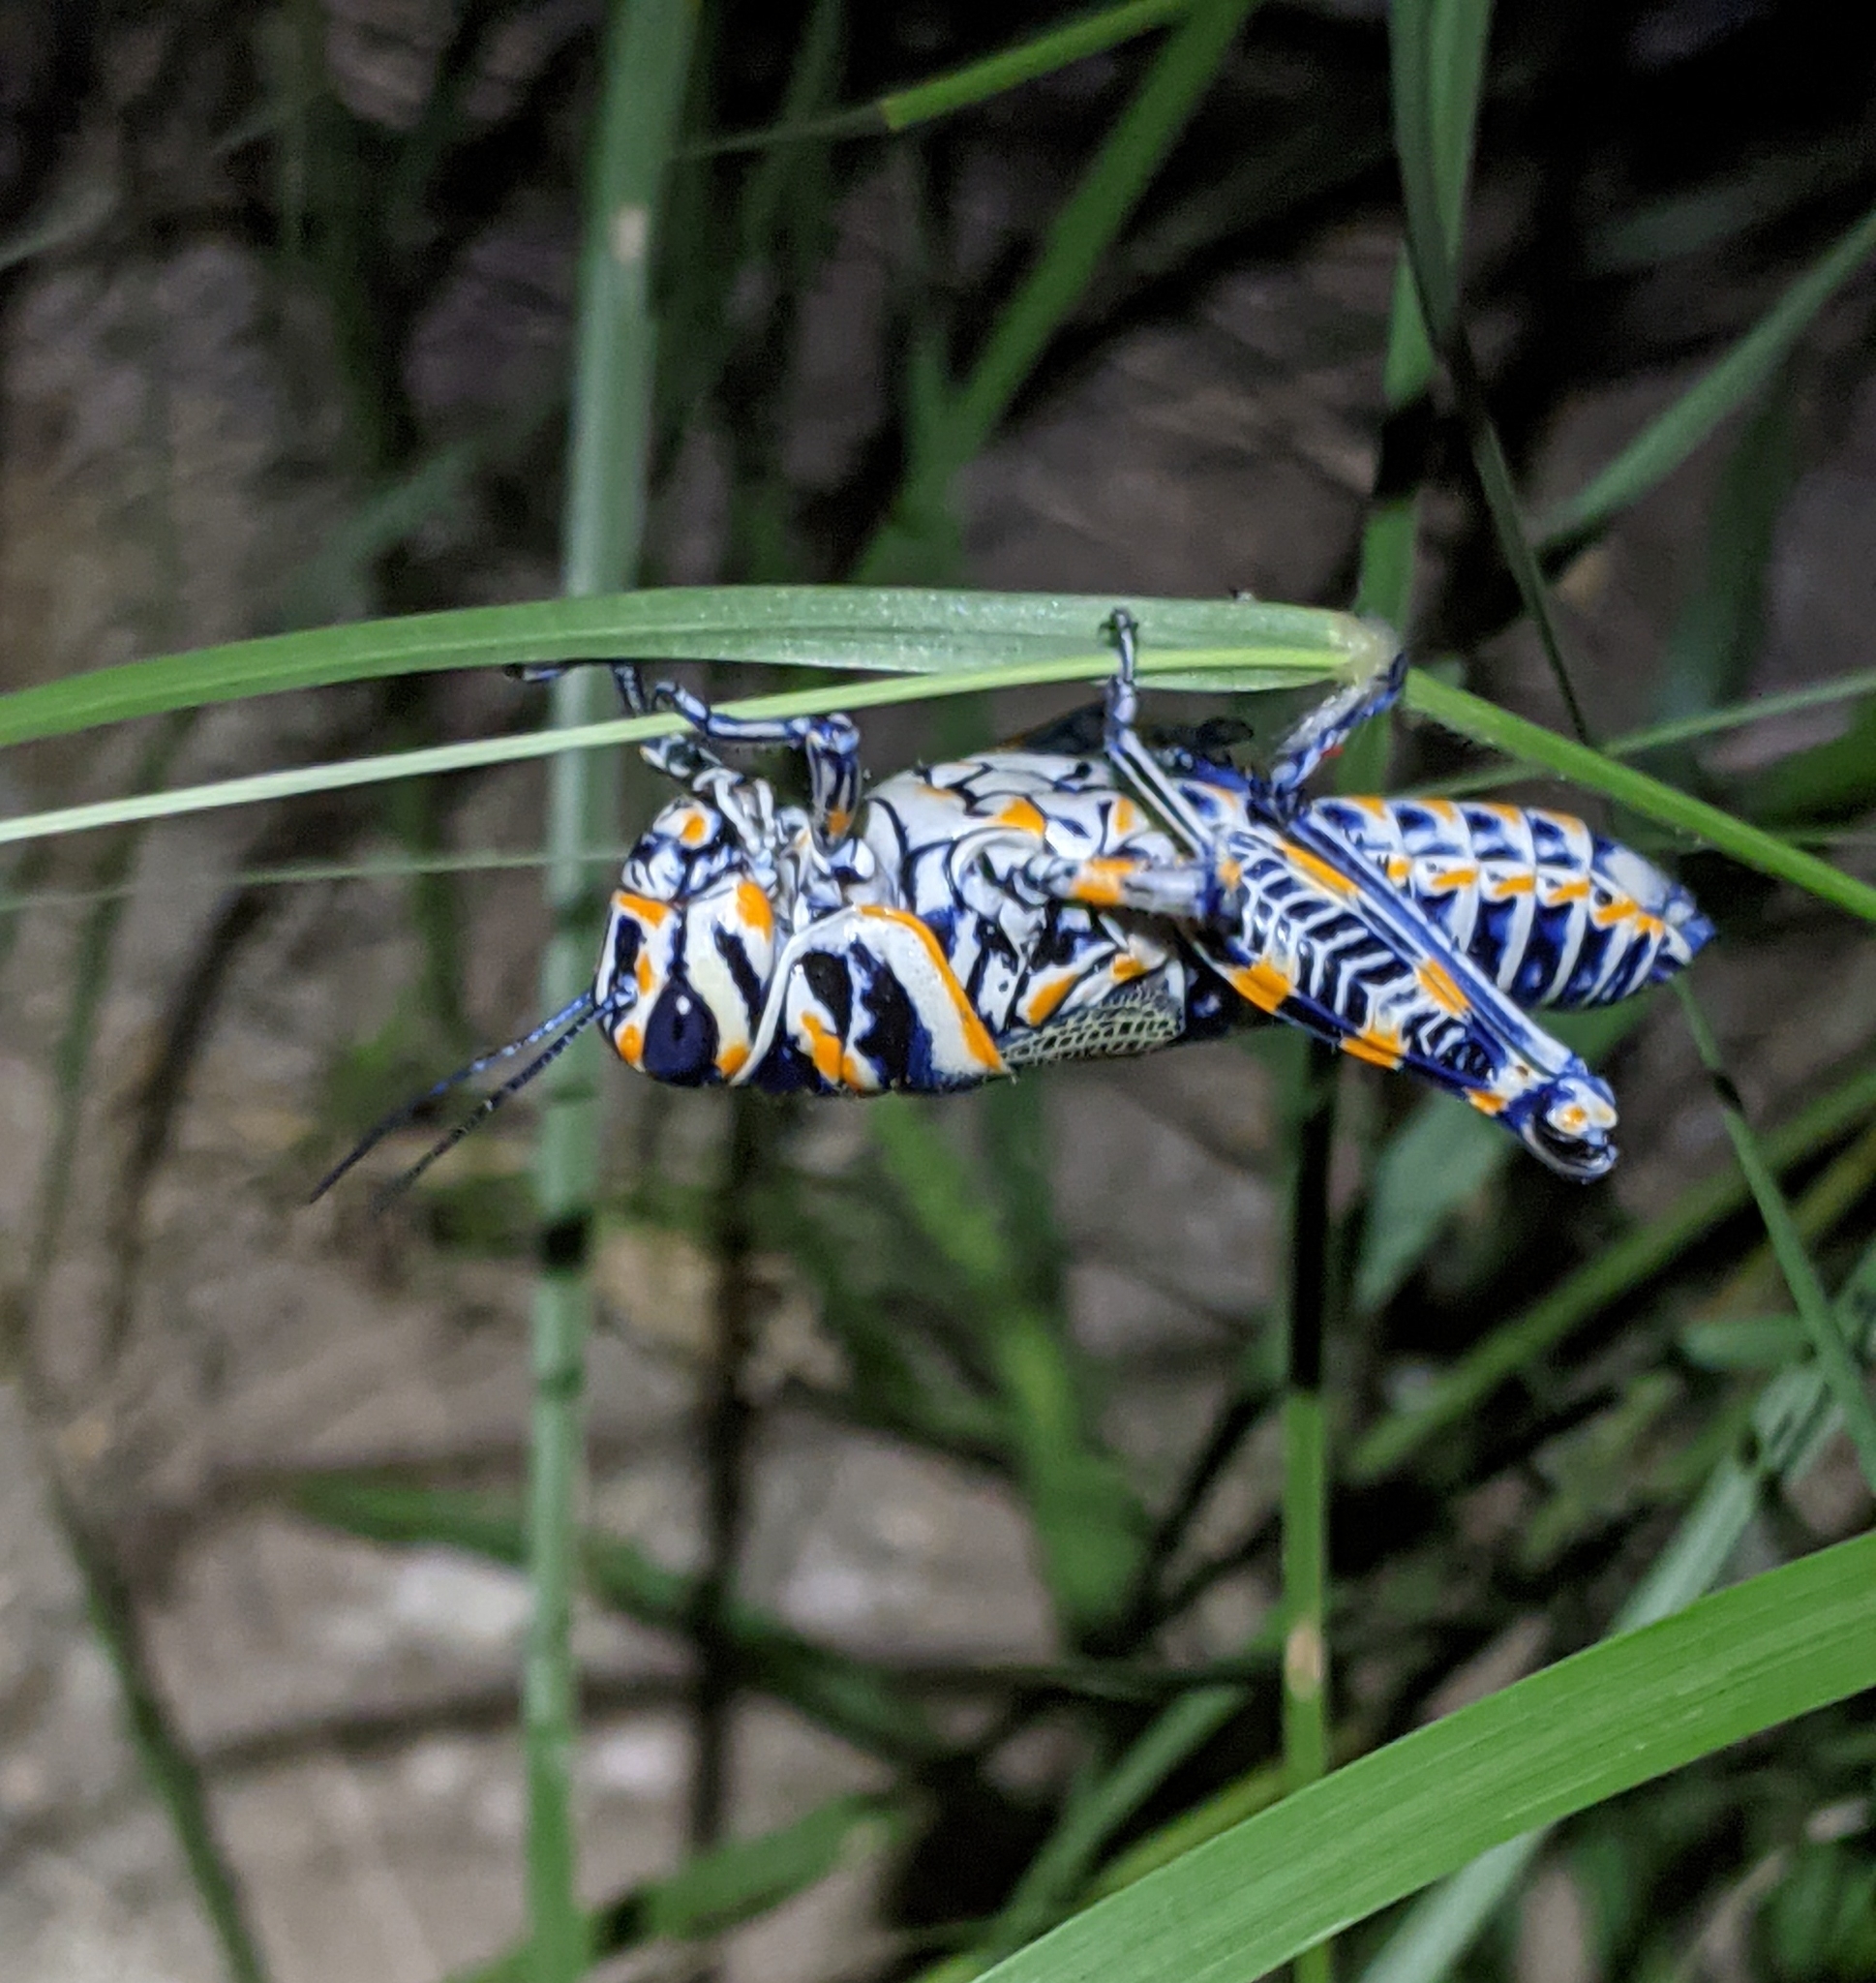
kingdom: Animalia
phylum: Arthropoda
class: Insecta
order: Orthoptera
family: Acrididae
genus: Dactylotum
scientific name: Dactylotum bicolor
